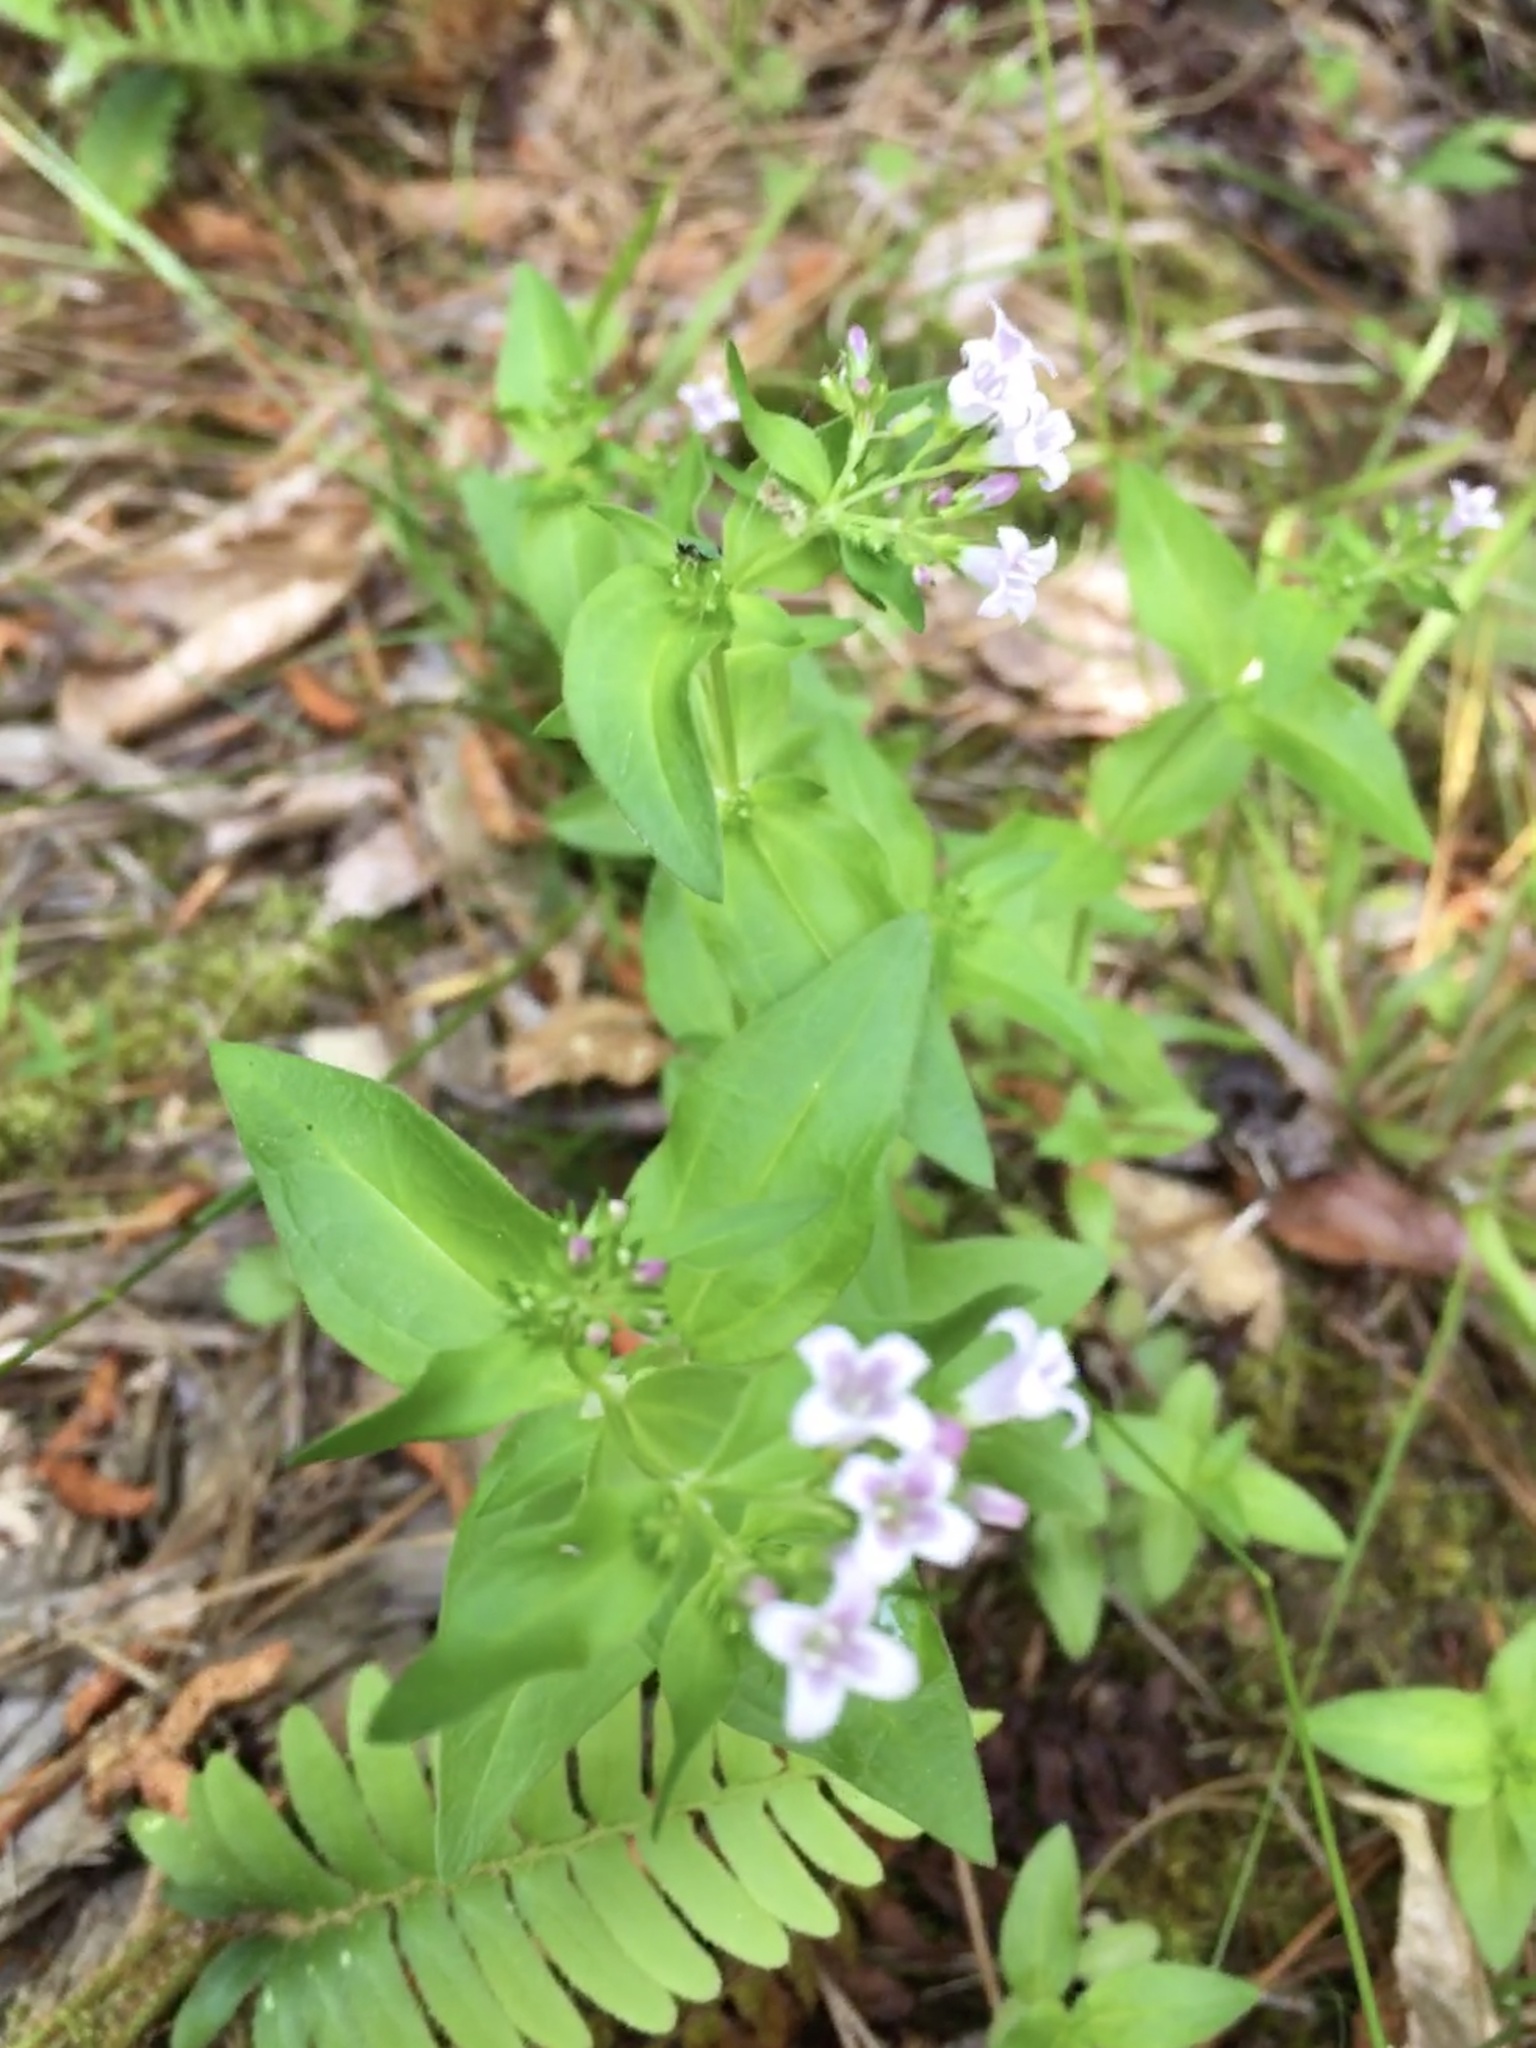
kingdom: Plantae
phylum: Tracheophyta
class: Magnoliopsida
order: Gentianales
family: Rubiaceae
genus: Houstonia
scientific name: Houstonia purpurea
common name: Summer bluet
